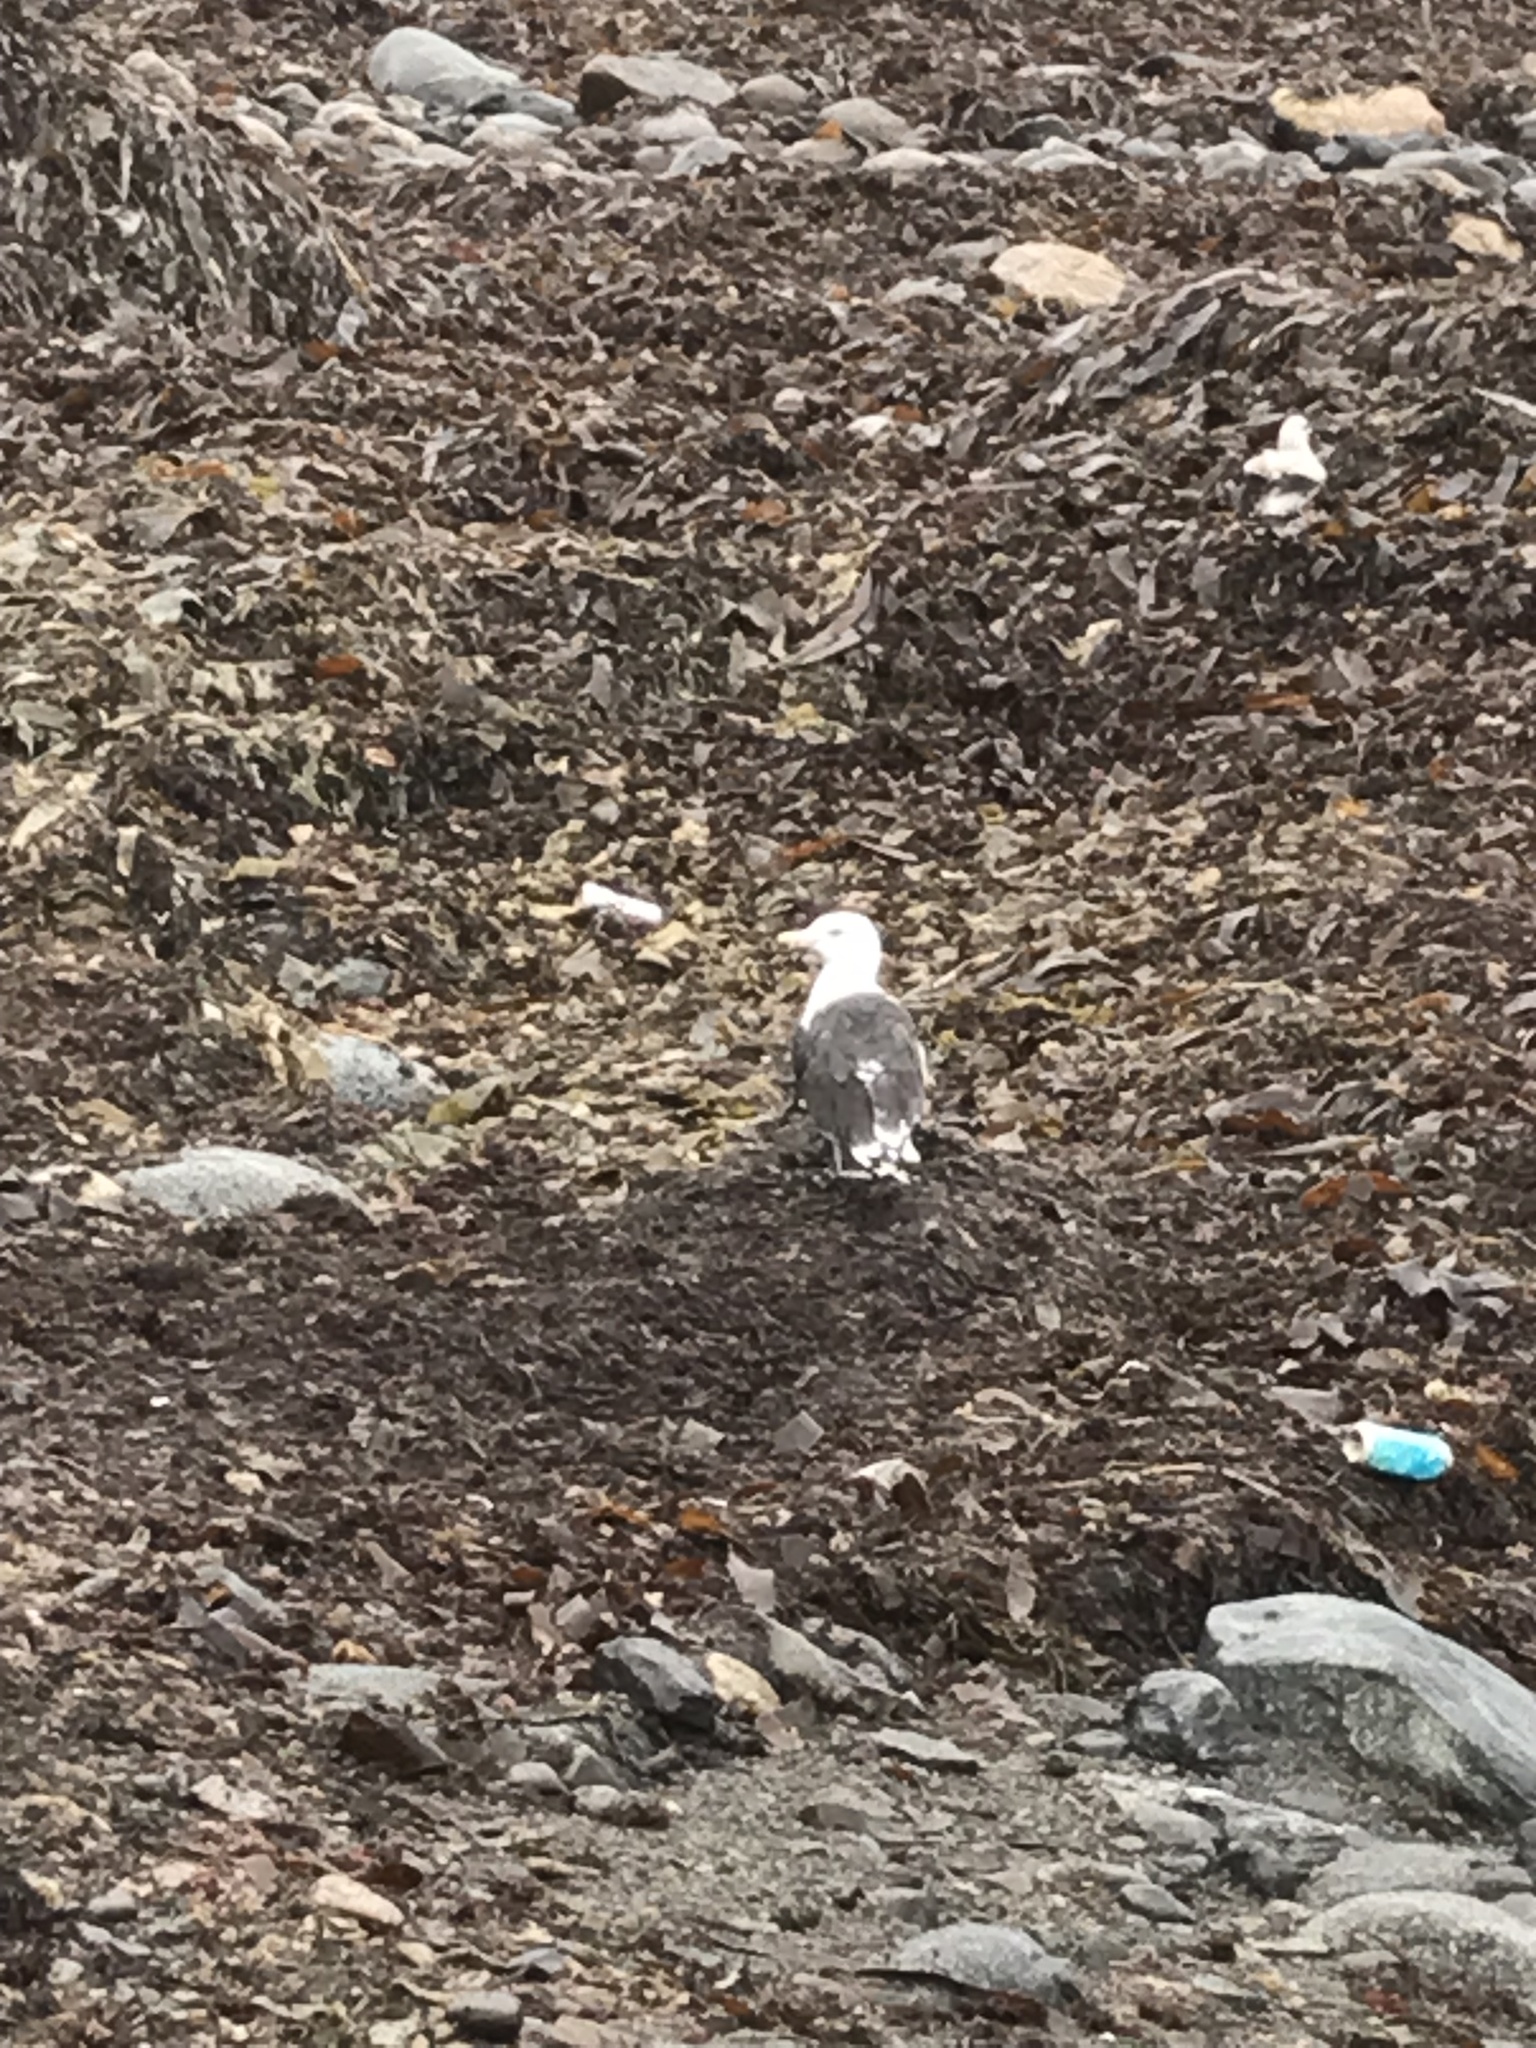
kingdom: Animalia
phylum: Chordata
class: Aves
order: Charadriiformes
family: Laridae
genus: Larus
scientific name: Larus marinus
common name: Great black-backed gull
